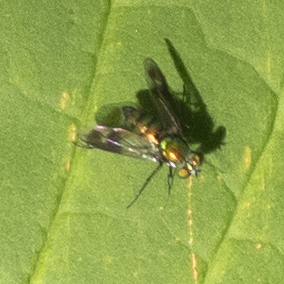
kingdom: Animalia
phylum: Arthropoda
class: Insecta
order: Diptera
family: Dolichopodidae
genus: Condylostylus
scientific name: Condylostylus patibulatus
